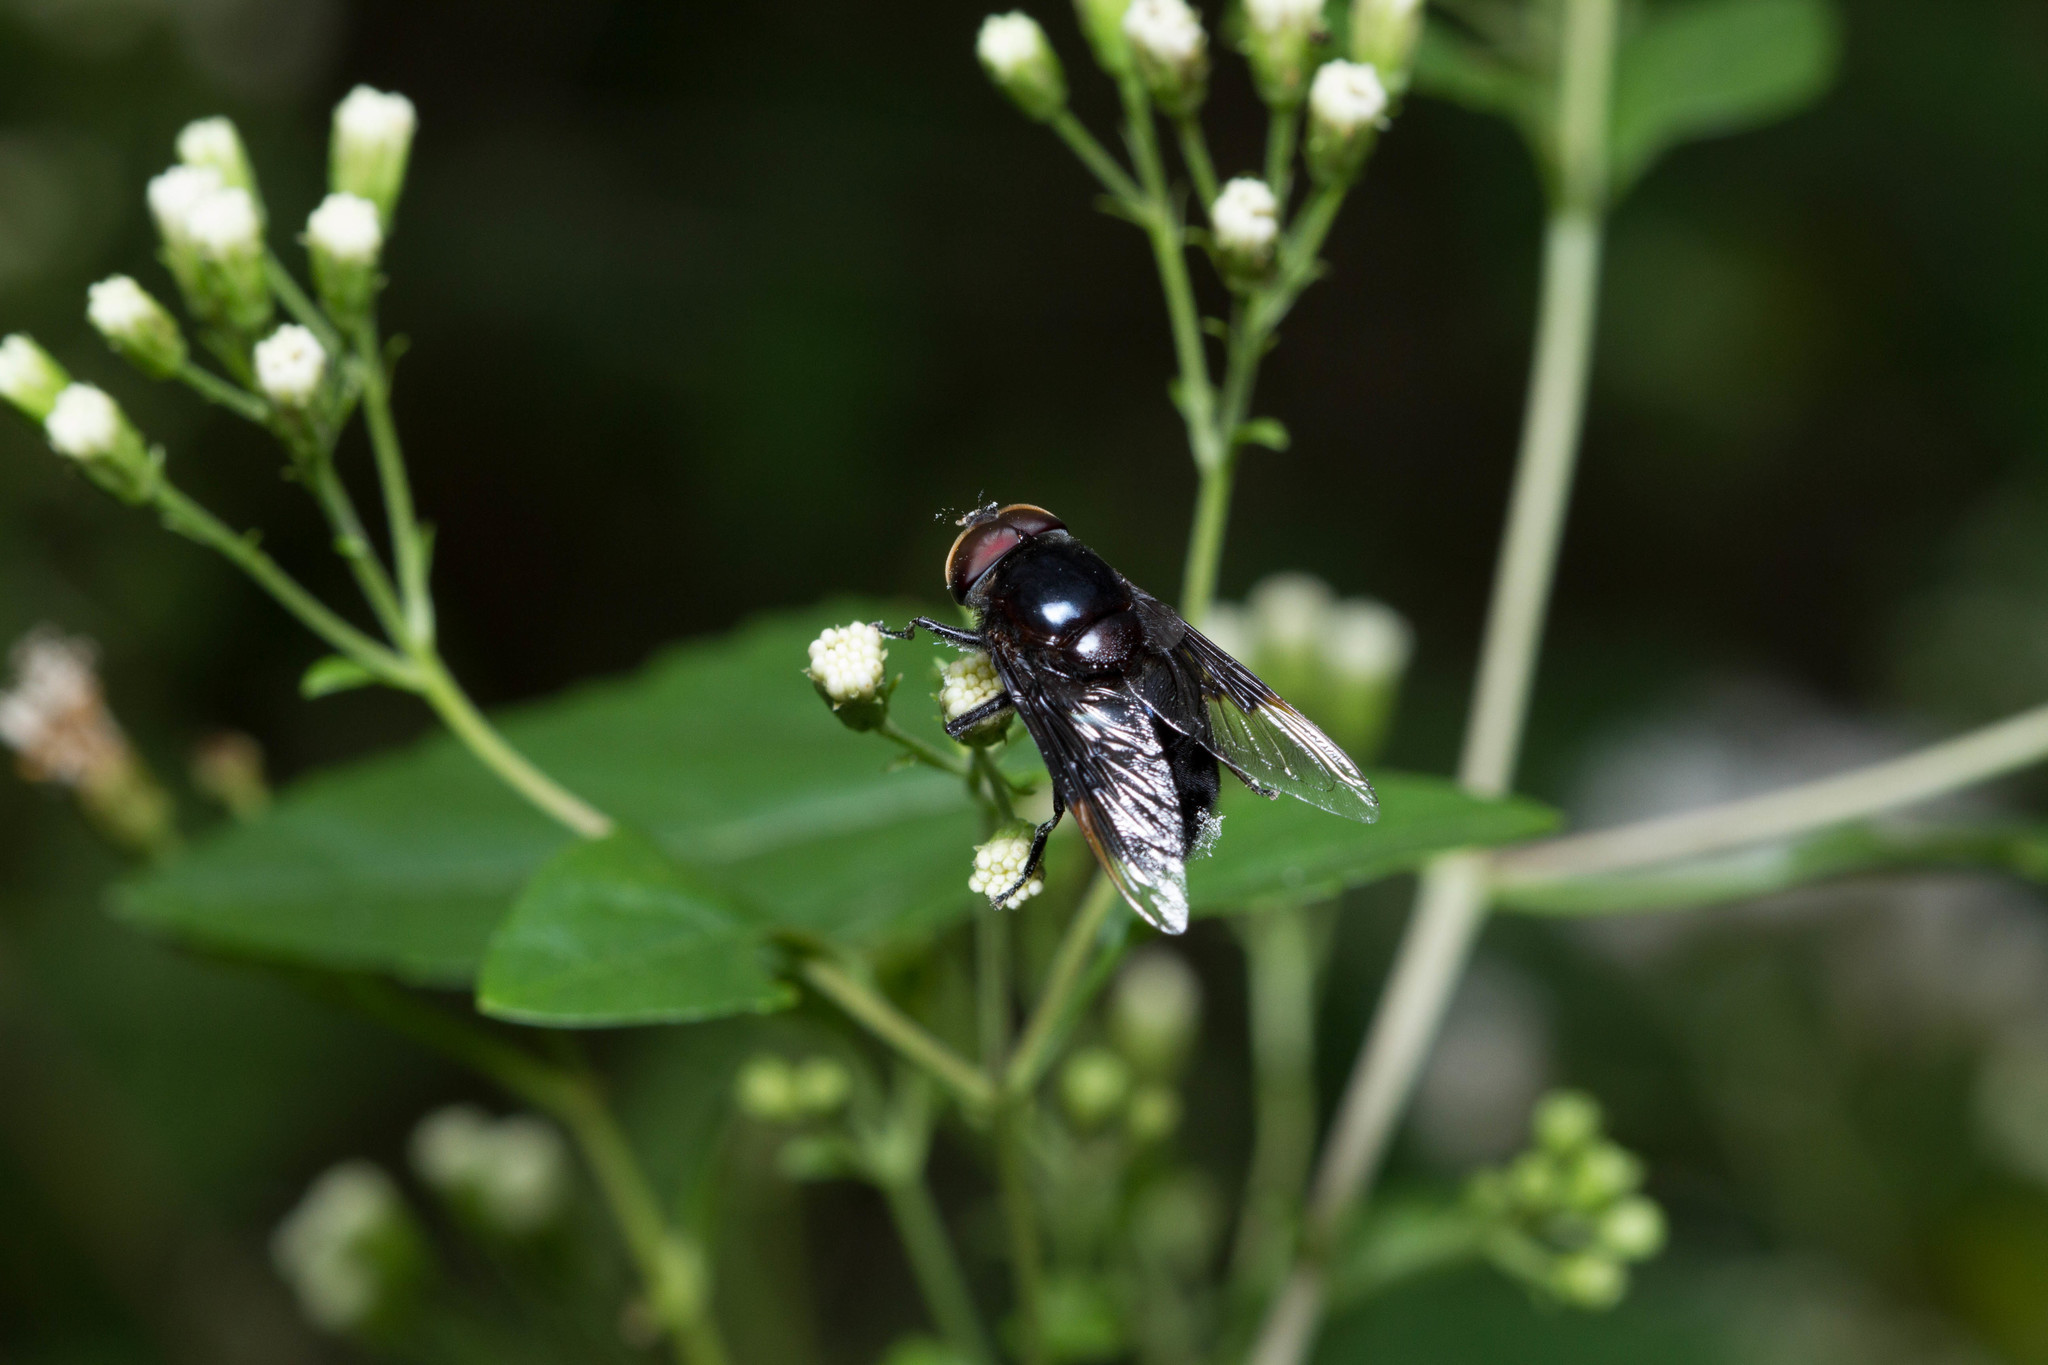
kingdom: Animalia
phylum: Arthropoda
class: Insecta
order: Diptera
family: Syrphidae
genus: Copestylum
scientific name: Copestylum
